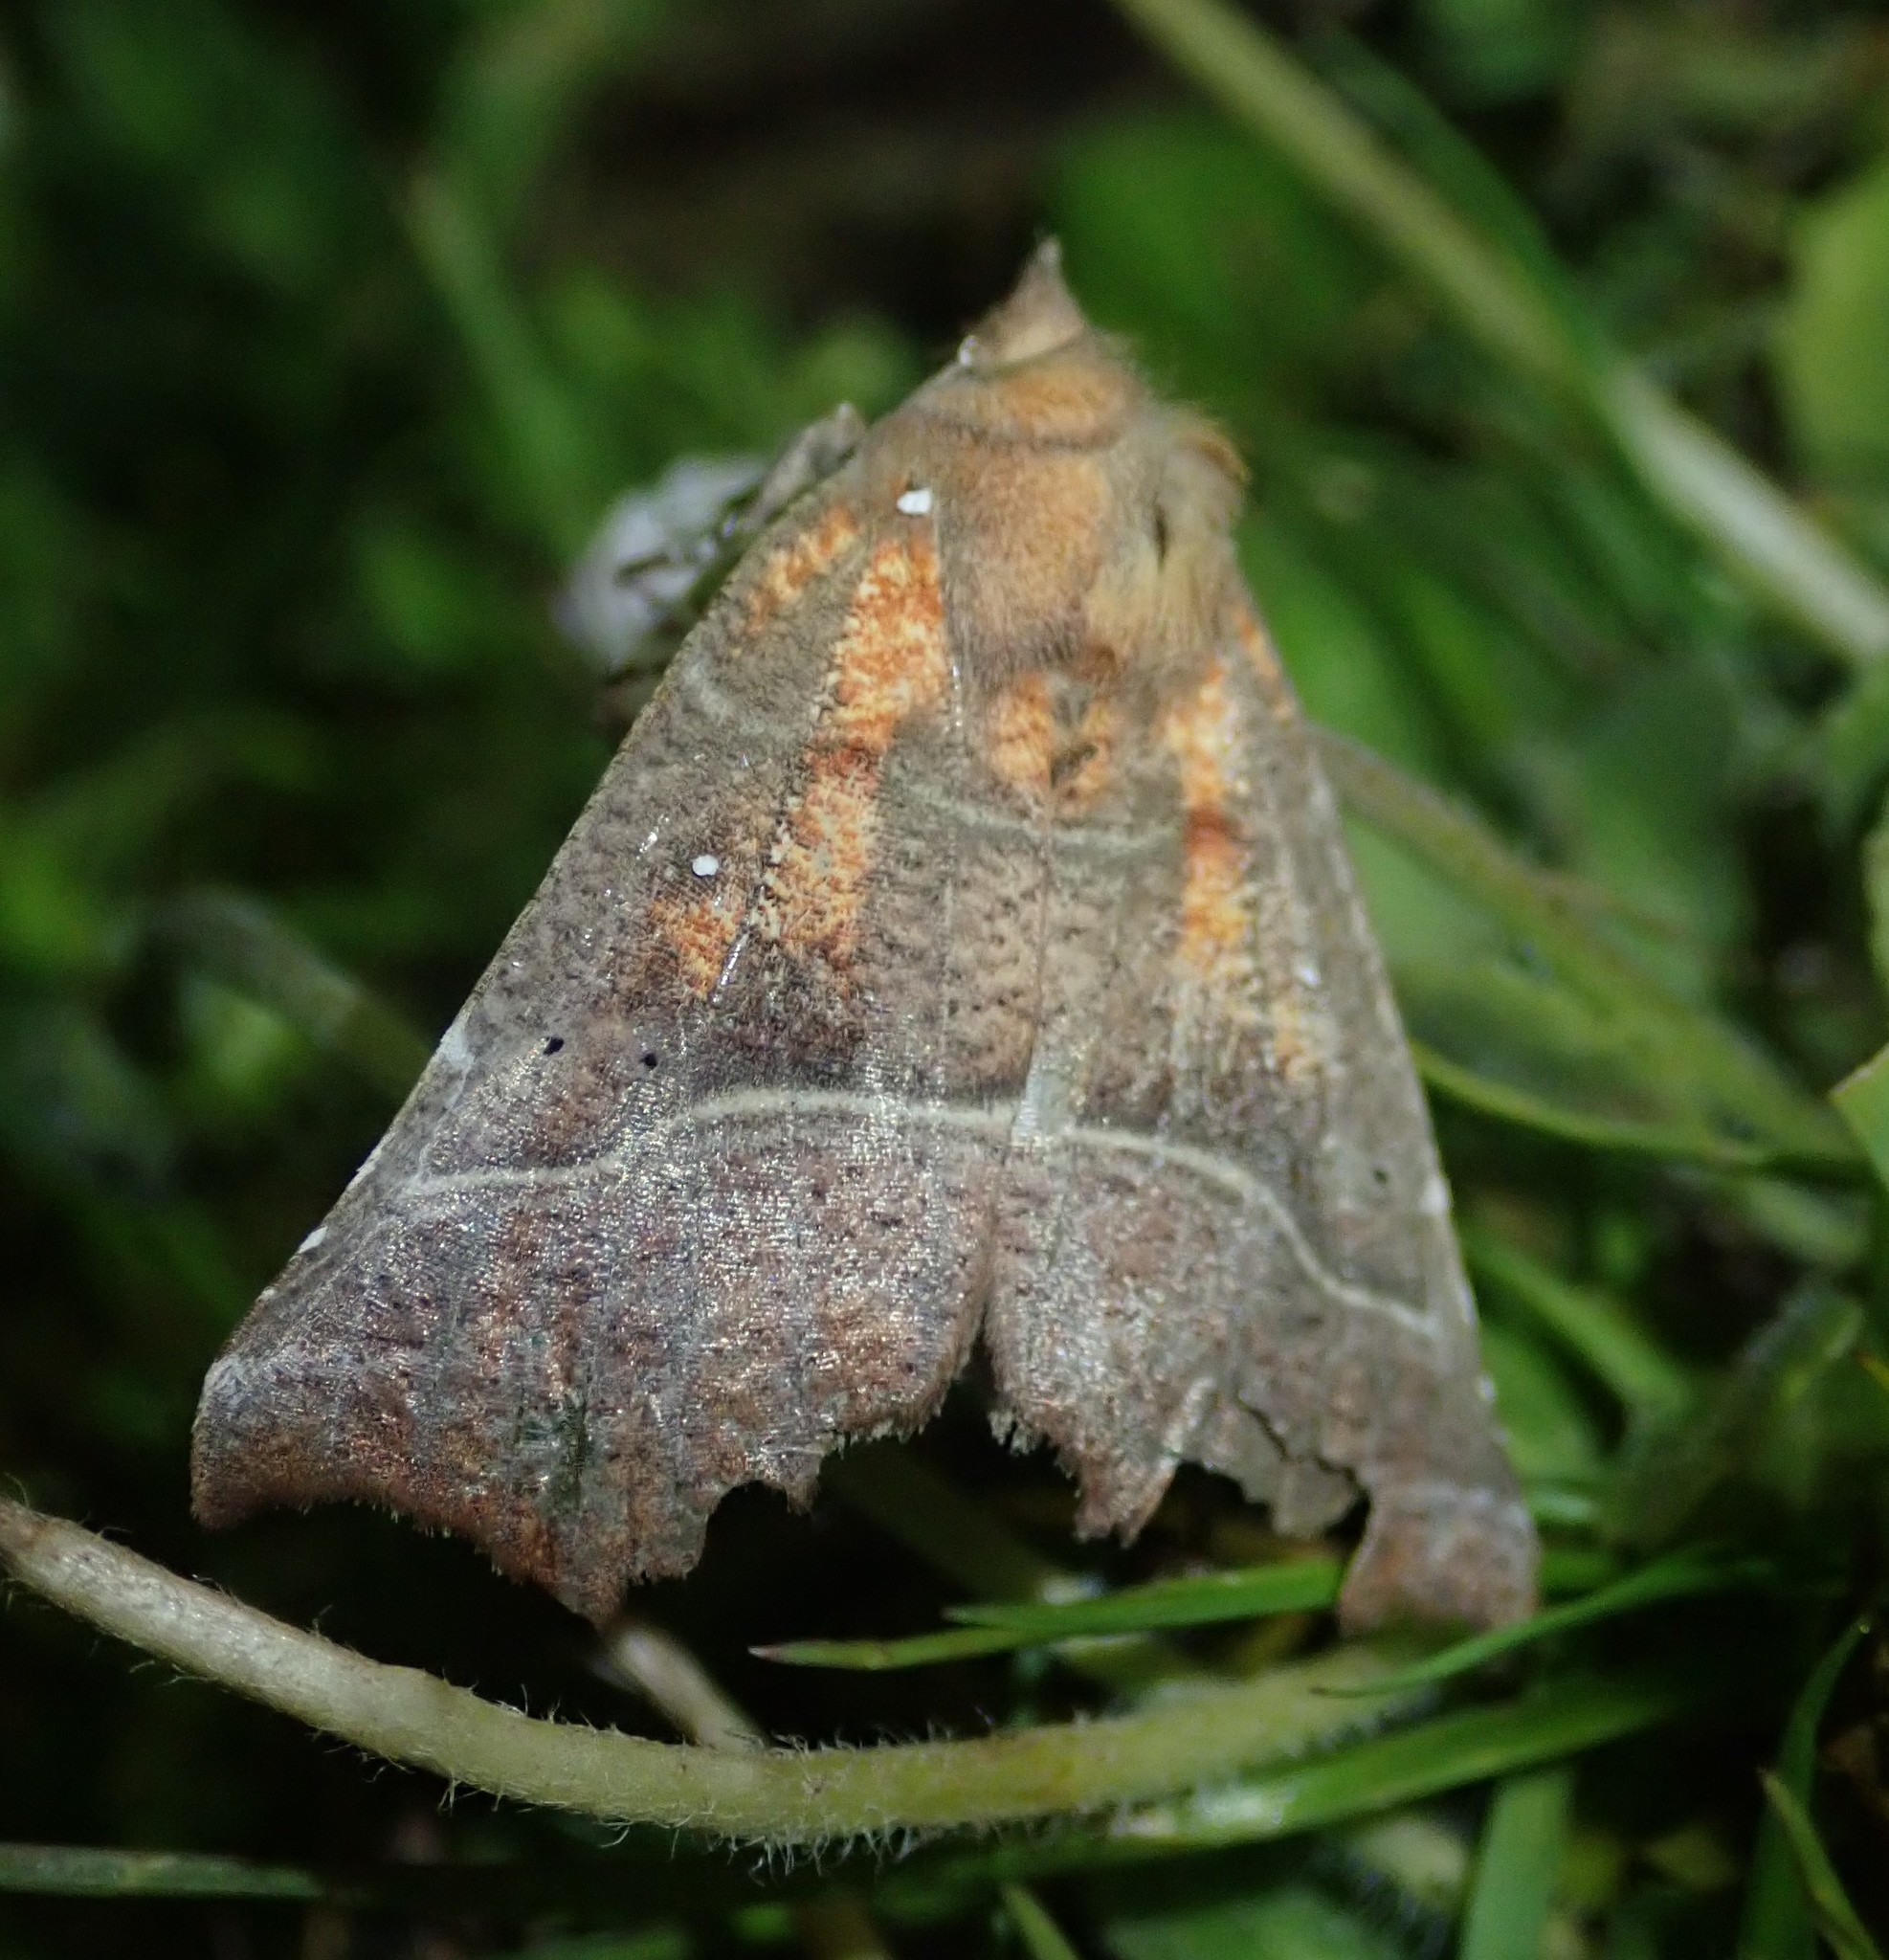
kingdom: Animalia
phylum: Arthropoda
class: Insecta
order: Lepidoptera
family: Erebidae
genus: Scoliopteryx
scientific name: Scoliopteryx libatrix
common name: Herald
